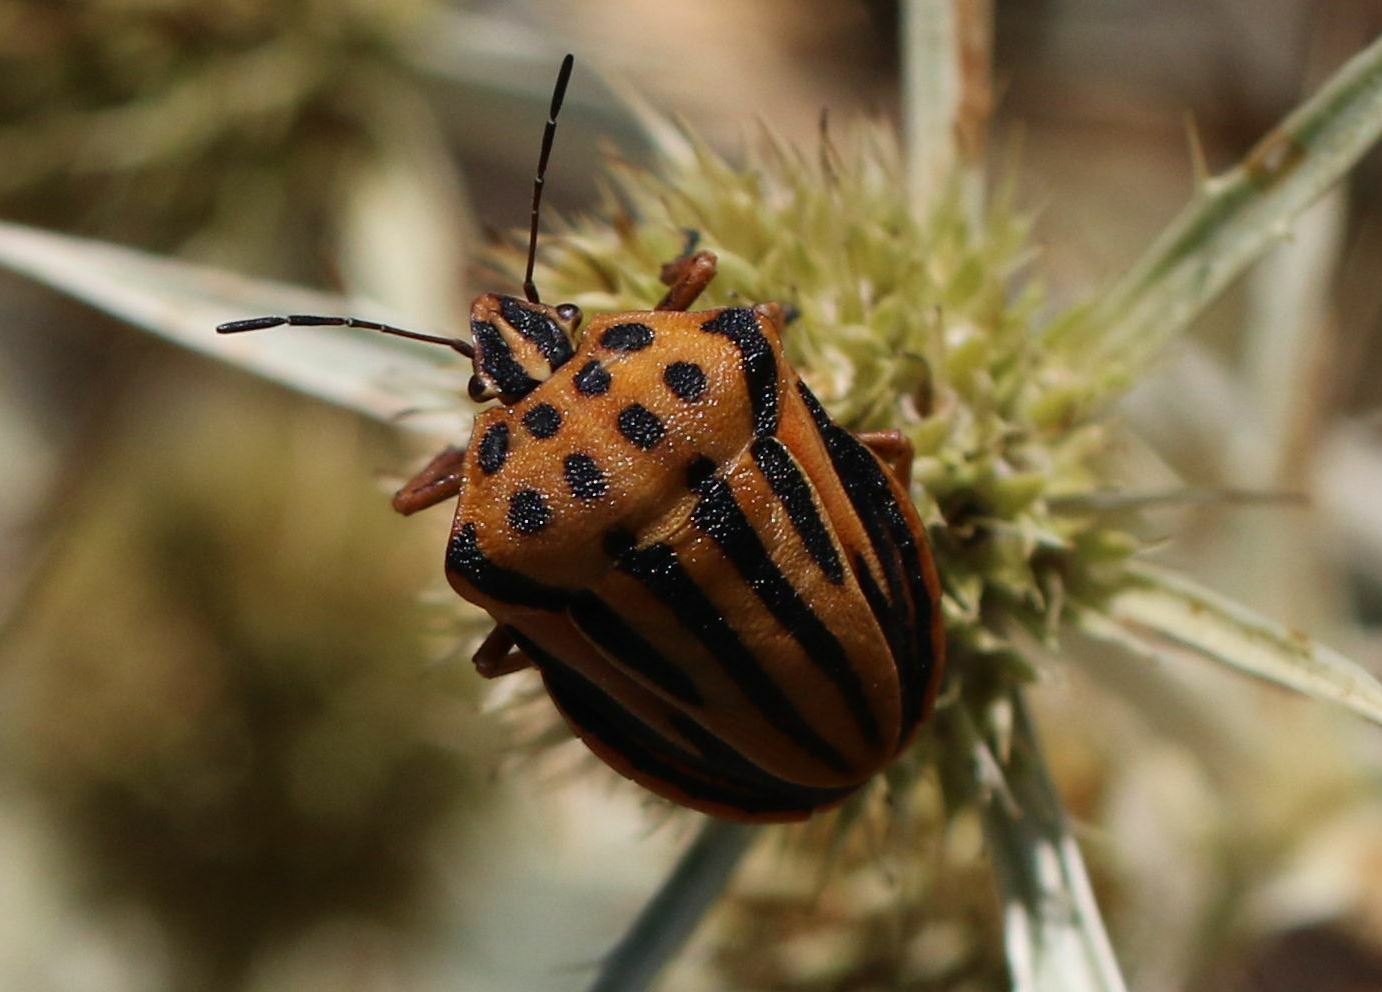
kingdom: Animalia
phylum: Arthropoda
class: Insecta
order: Hemiptera
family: Pentatomidae
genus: Graphosoma
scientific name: Graphosoma semipunctatum
